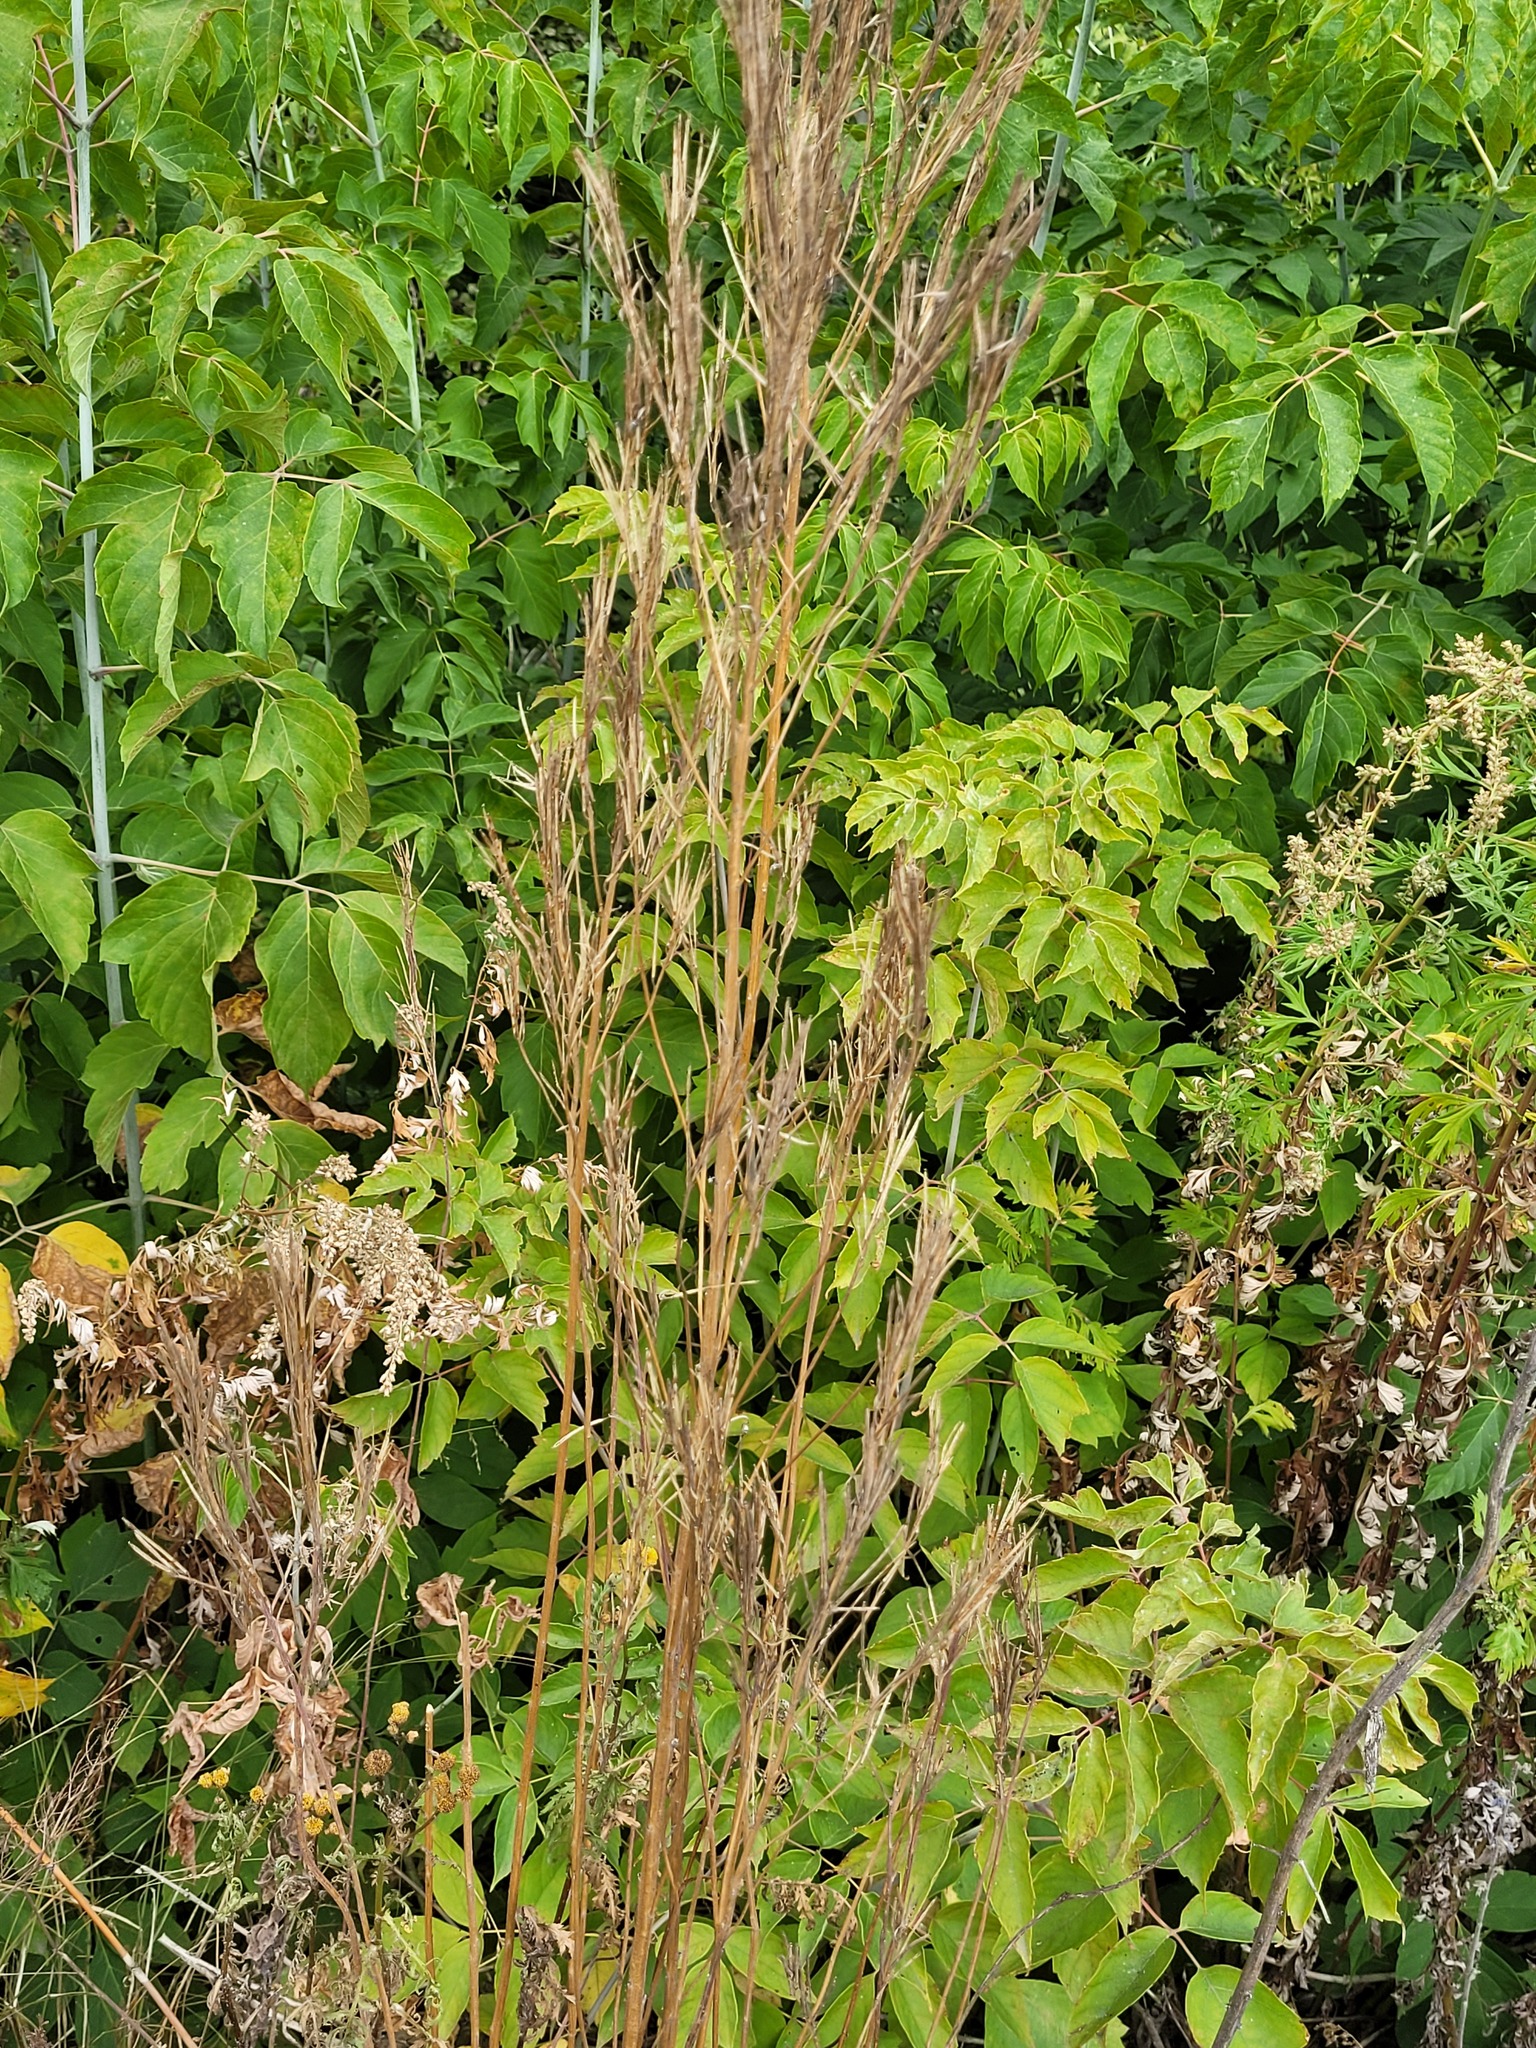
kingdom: Plantae
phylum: Tracheophyta
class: Magnoliopsida
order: Brassicales
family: Brassicaceae
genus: Turritis
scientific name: Turritis glabra
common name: Tower rockcress
